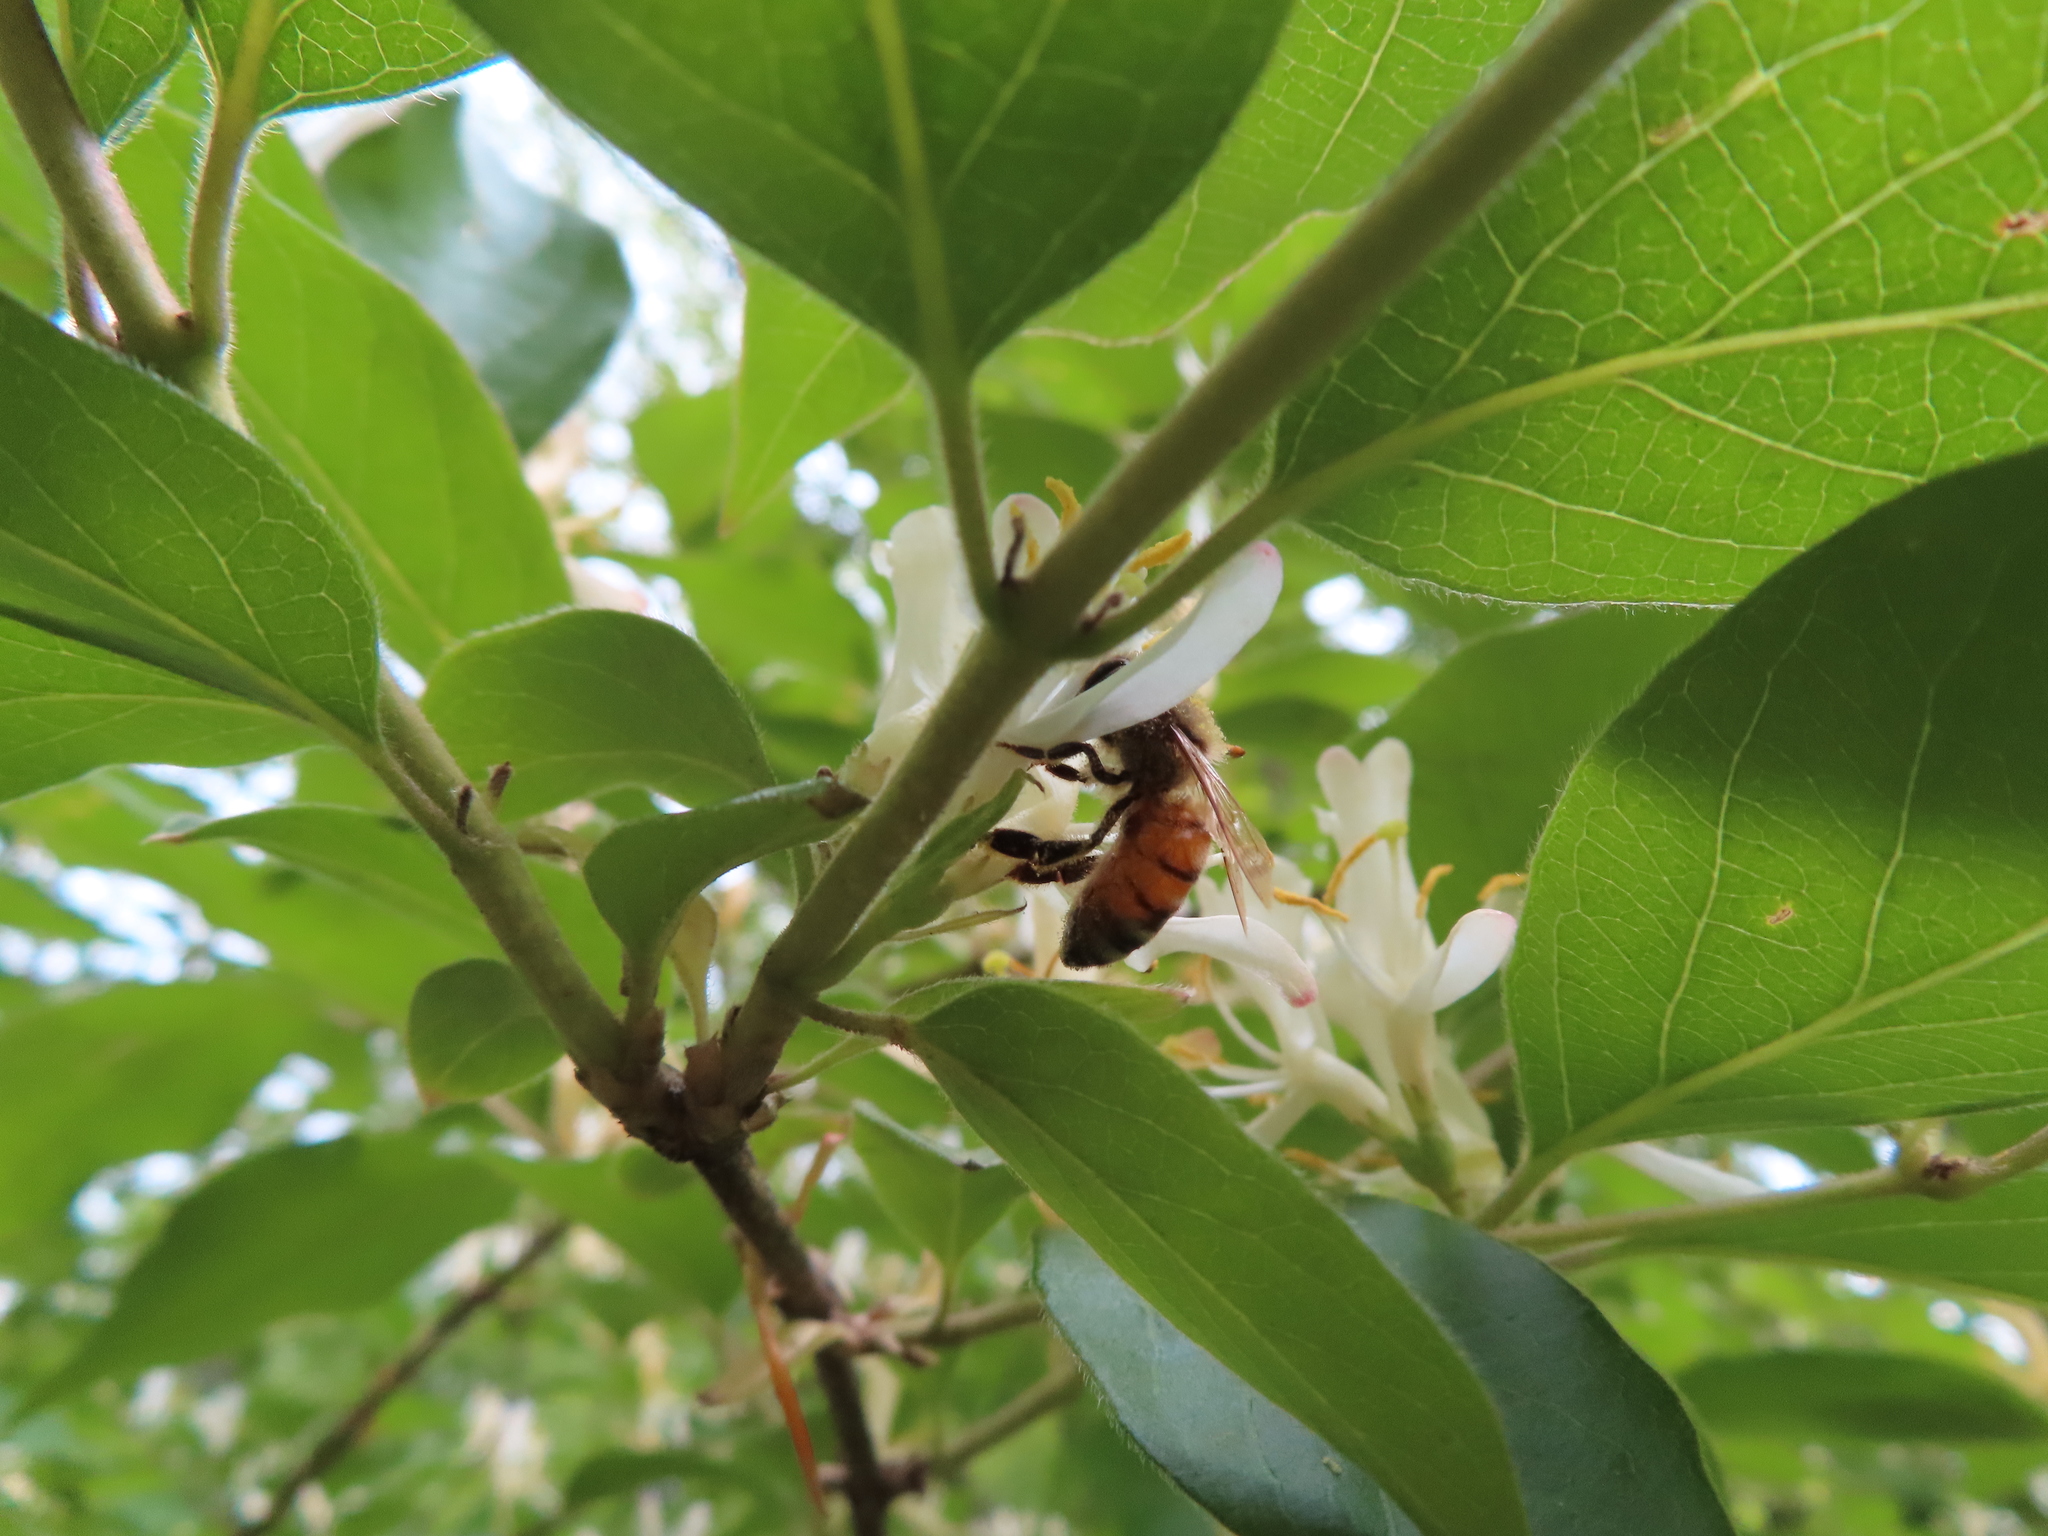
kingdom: Animalia
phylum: Arthropoda
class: Insecta
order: Hymenoptera
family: Apidae
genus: Apis
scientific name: Apis mellifera
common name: Honey bee
